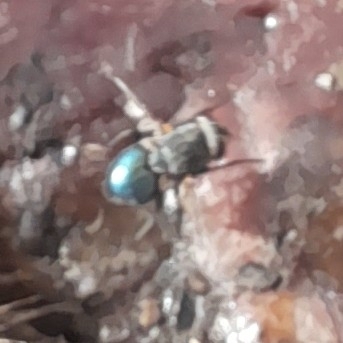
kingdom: Animalia
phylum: Arthropoda
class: Insecta
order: Diptera
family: Calliphoridae
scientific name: Calliphoridae
